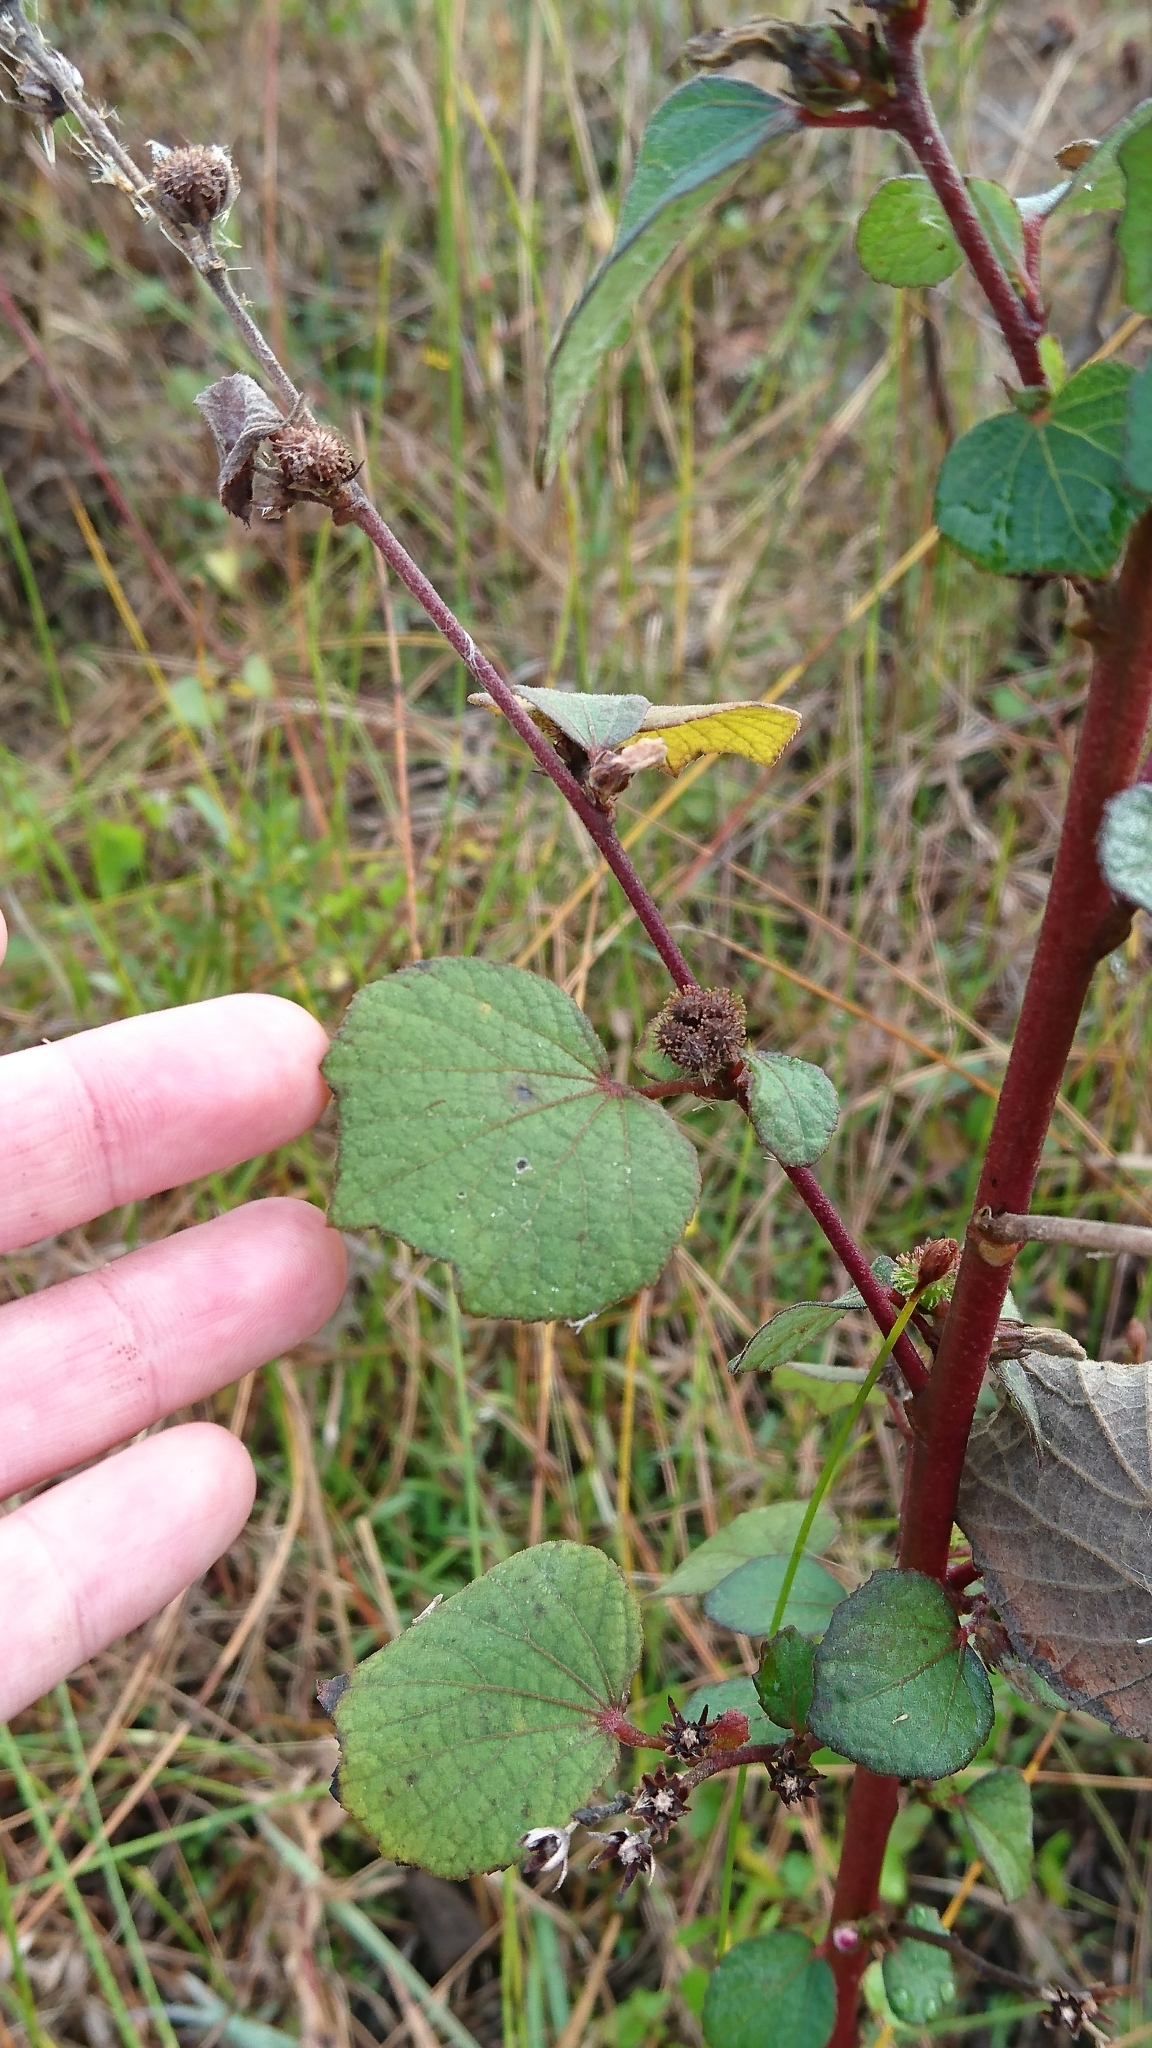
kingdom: Plantae
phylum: Tracheophyta
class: Magnoliopsida
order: Malvales
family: Malvaceae
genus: Urena
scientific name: Urena lobata
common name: Caesarweed
